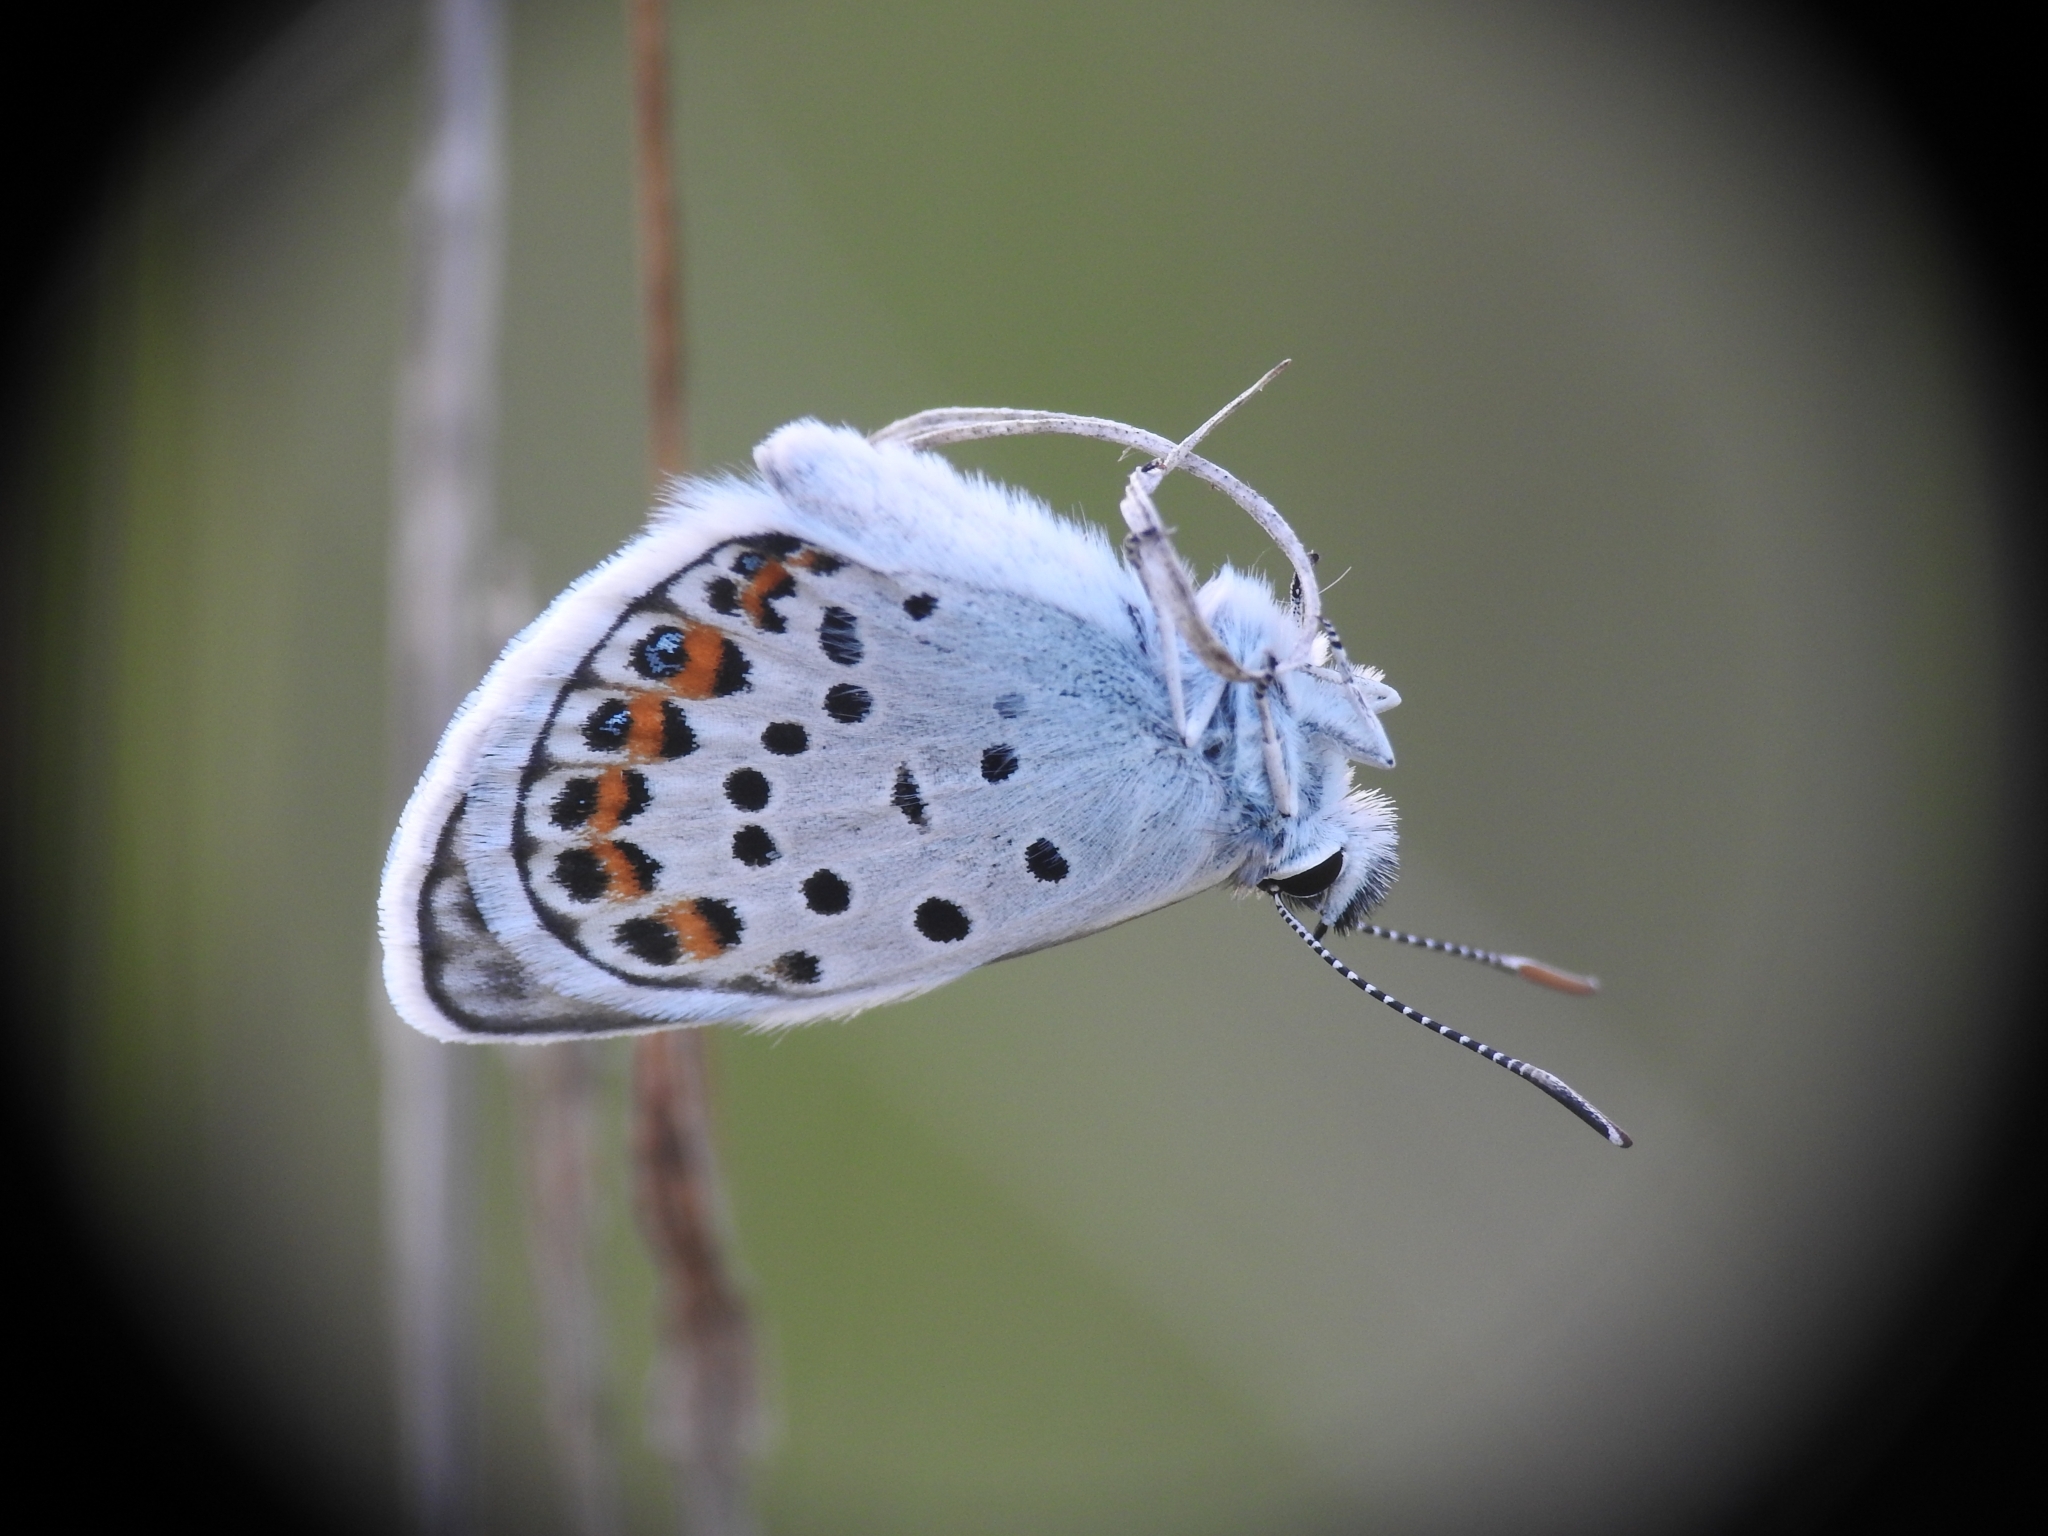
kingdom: Animalia
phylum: Arthropoda
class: Insecta
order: Lepidoptera
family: Lycaenidae
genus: Plebejus
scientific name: Plebejus argus
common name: Silver-studded blue
